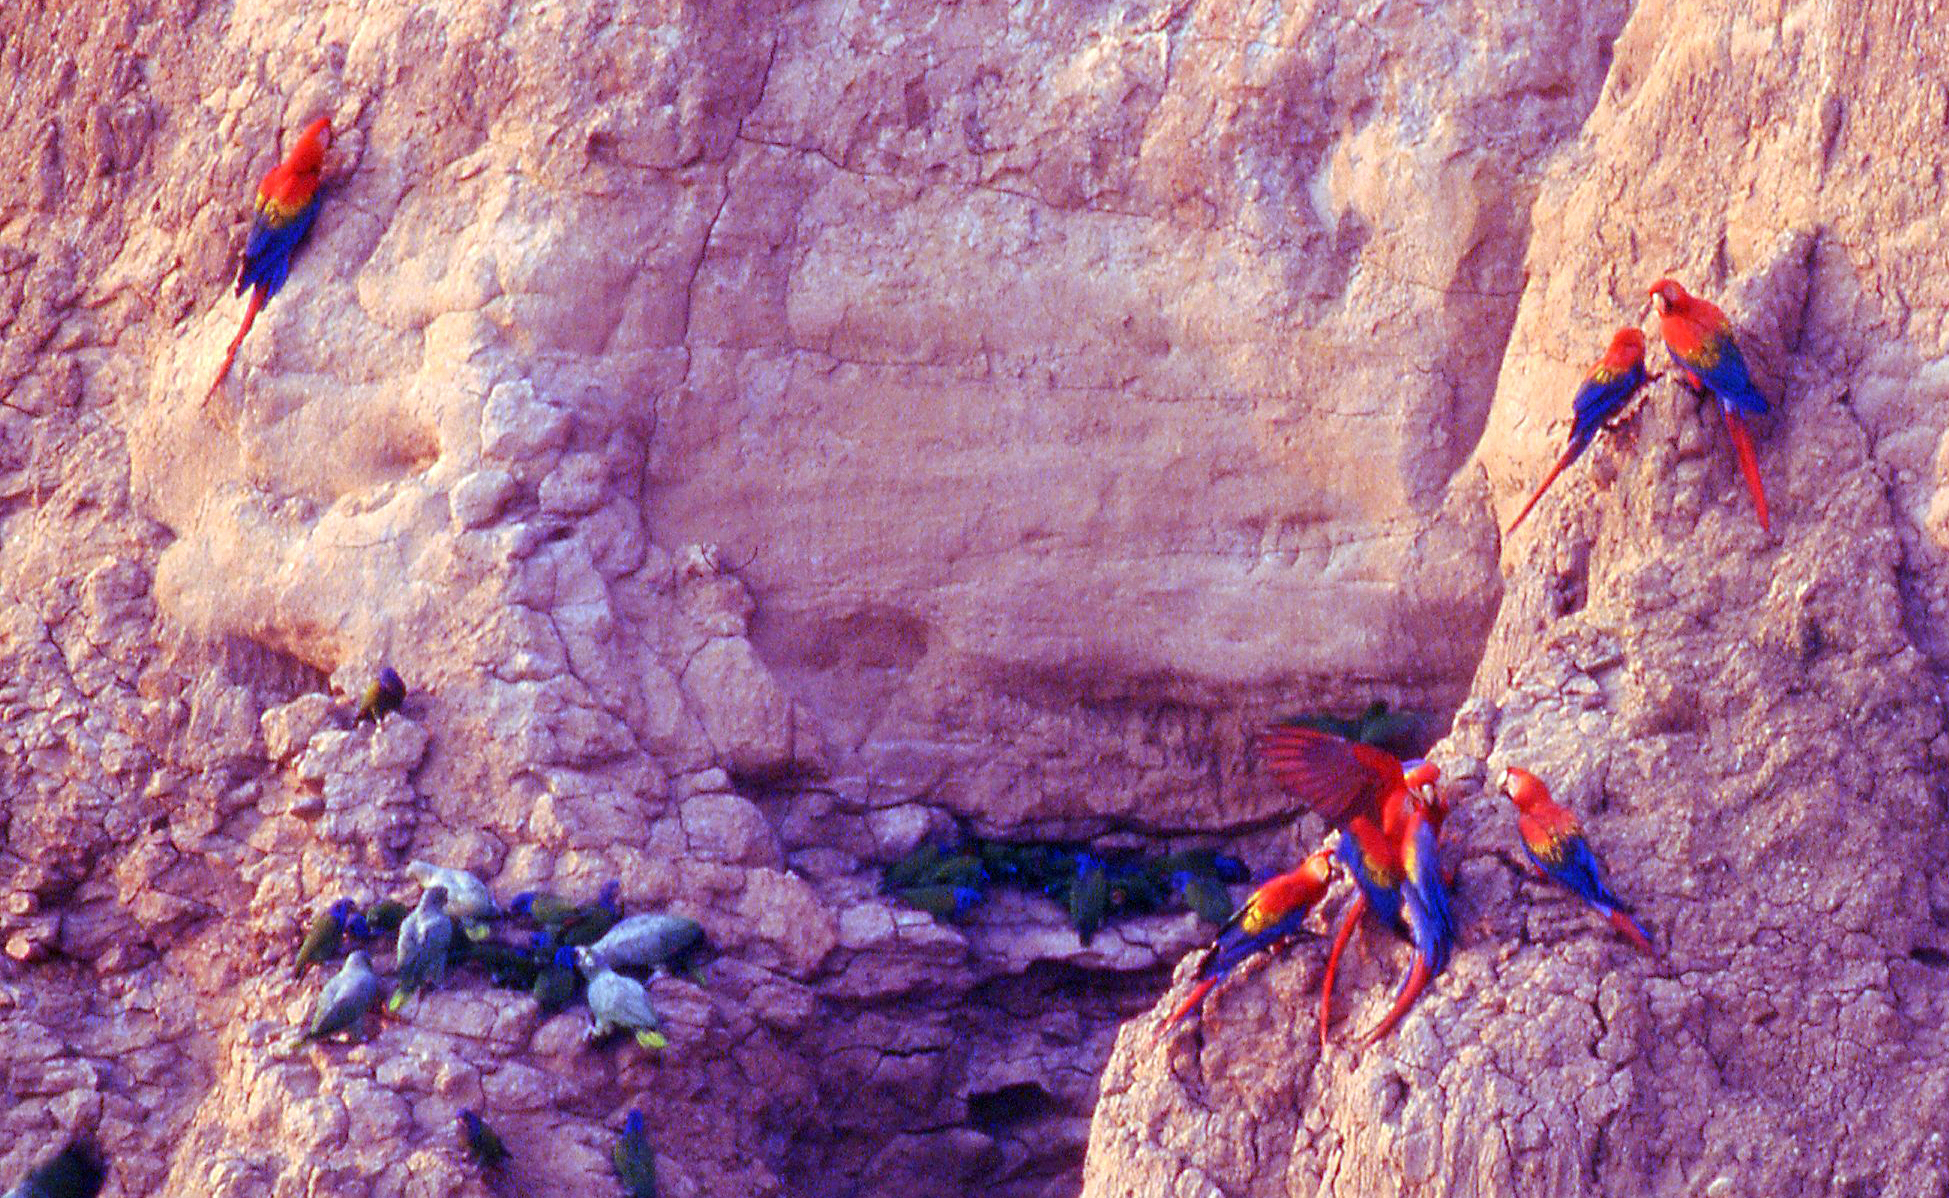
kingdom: Animalia
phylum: Chordata
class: Aves
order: Psittaciformes
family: Psittacidae
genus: Ara
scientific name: Ara macao
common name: Scarlet macaw
